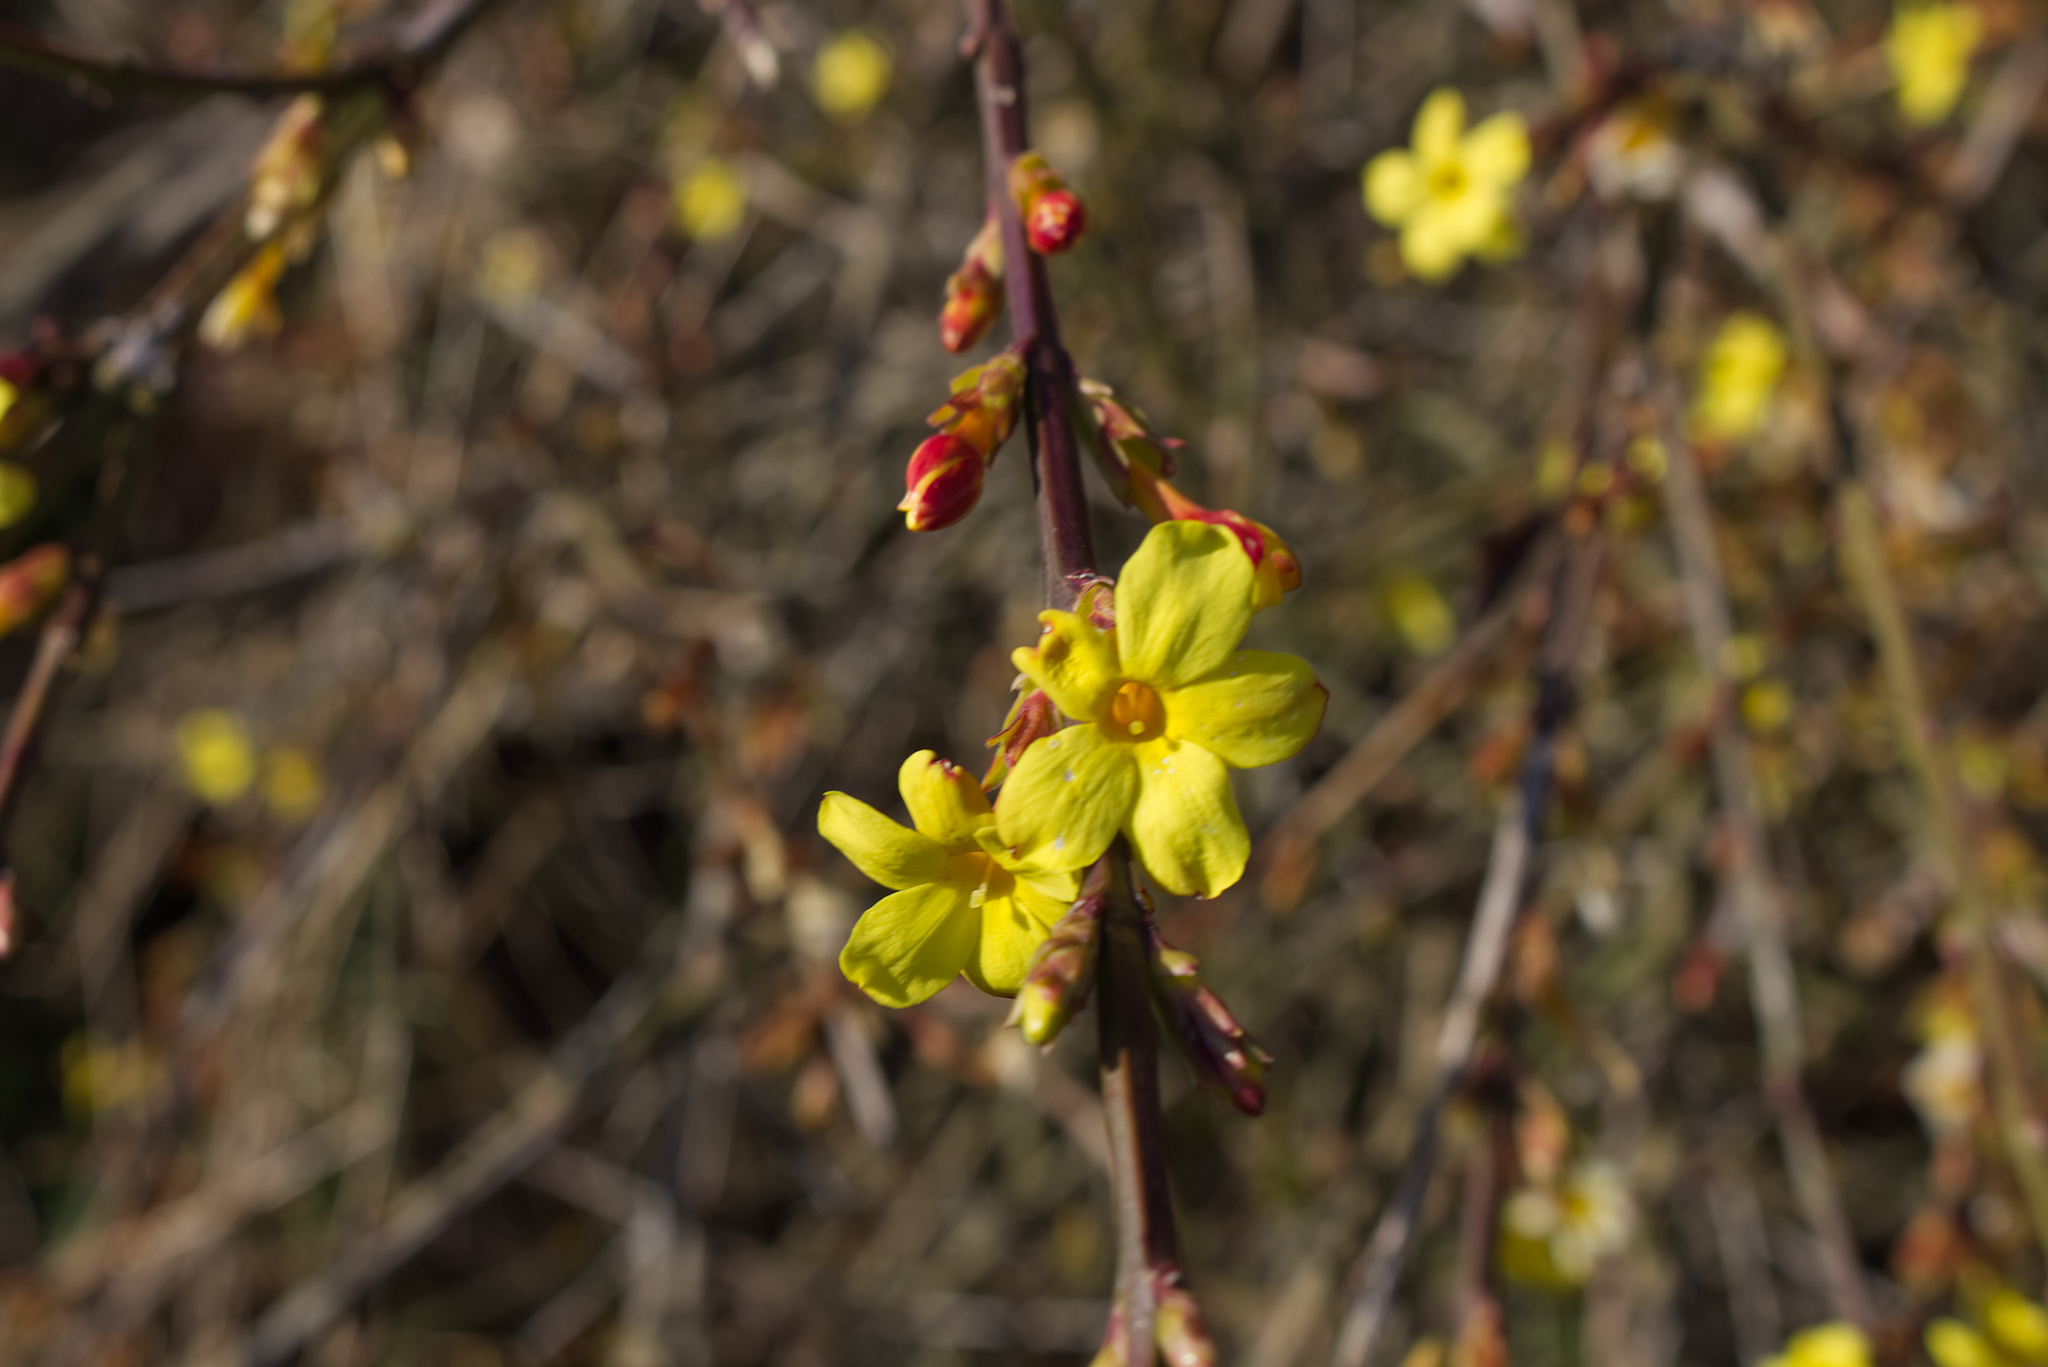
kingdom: Plantae
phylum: Tracheophyta
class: Magnoliopsida
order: Lamiales
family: Oleaceae
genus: Jasminum
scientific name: Jasminum nudiflorum
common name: Winter jasmine
